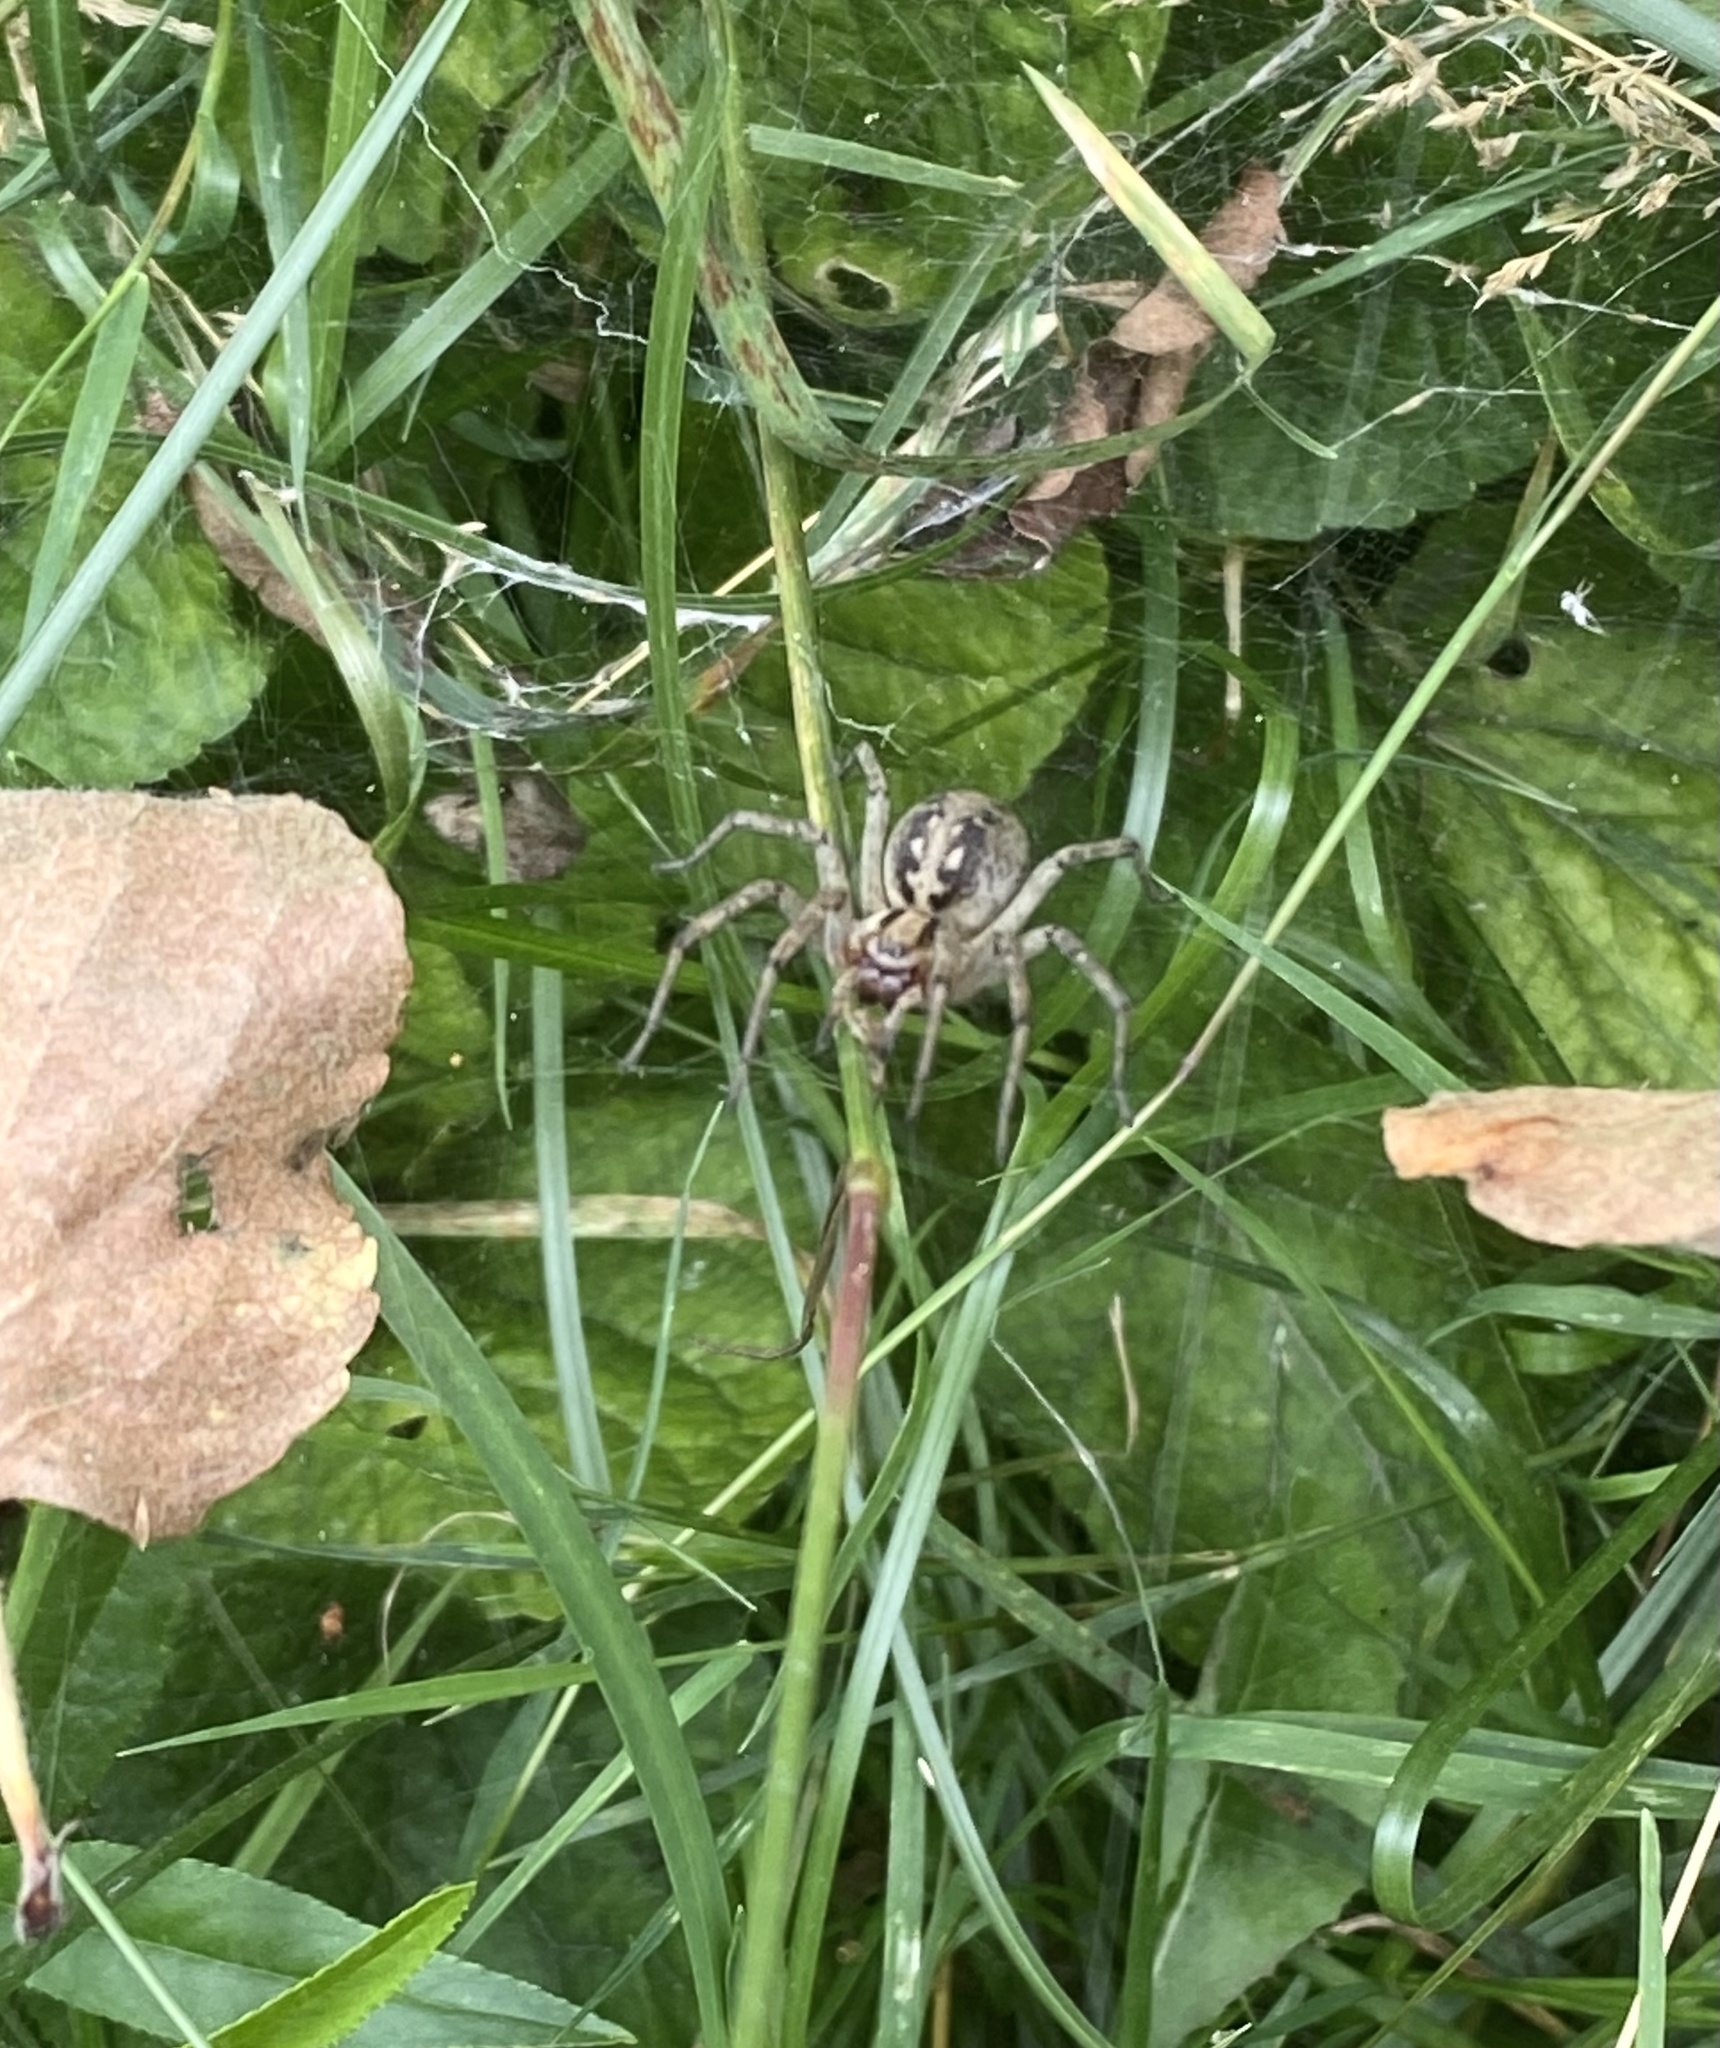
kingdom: Animalia
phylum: Arthropoda
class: Arachnida
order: Araneae
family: Agelenidae
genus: Agelena
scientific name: Agelena labyrinthica
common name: Labyrinth spider
